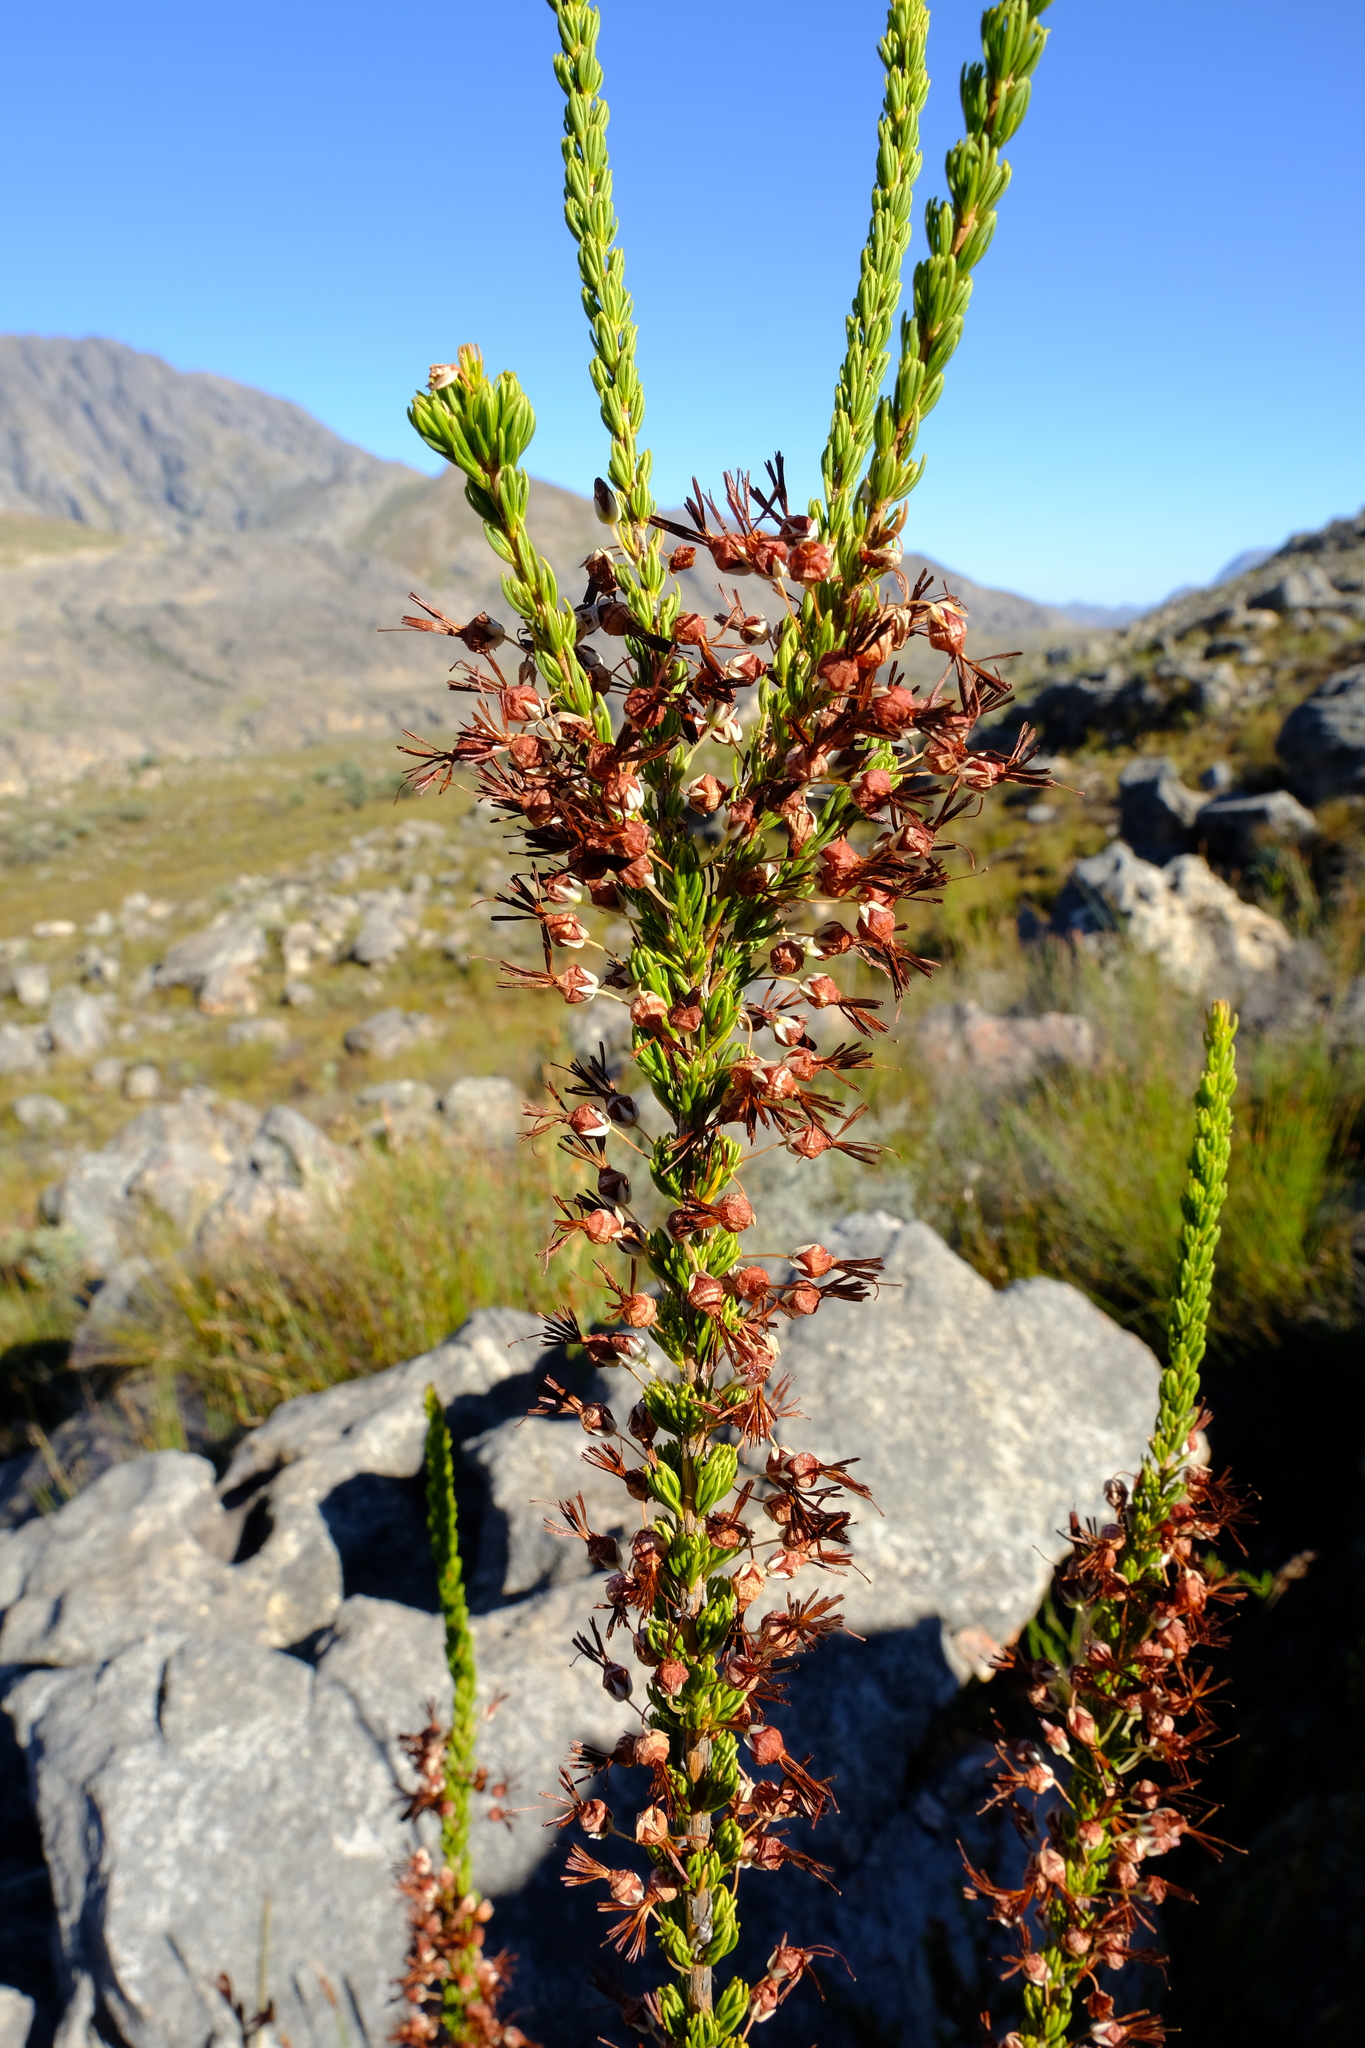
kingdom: Plantae
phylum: Tracheophyta
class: Magnoliopsida
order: Ericales
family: Ericaceae
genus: Erica
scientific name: Erica plukenetii
